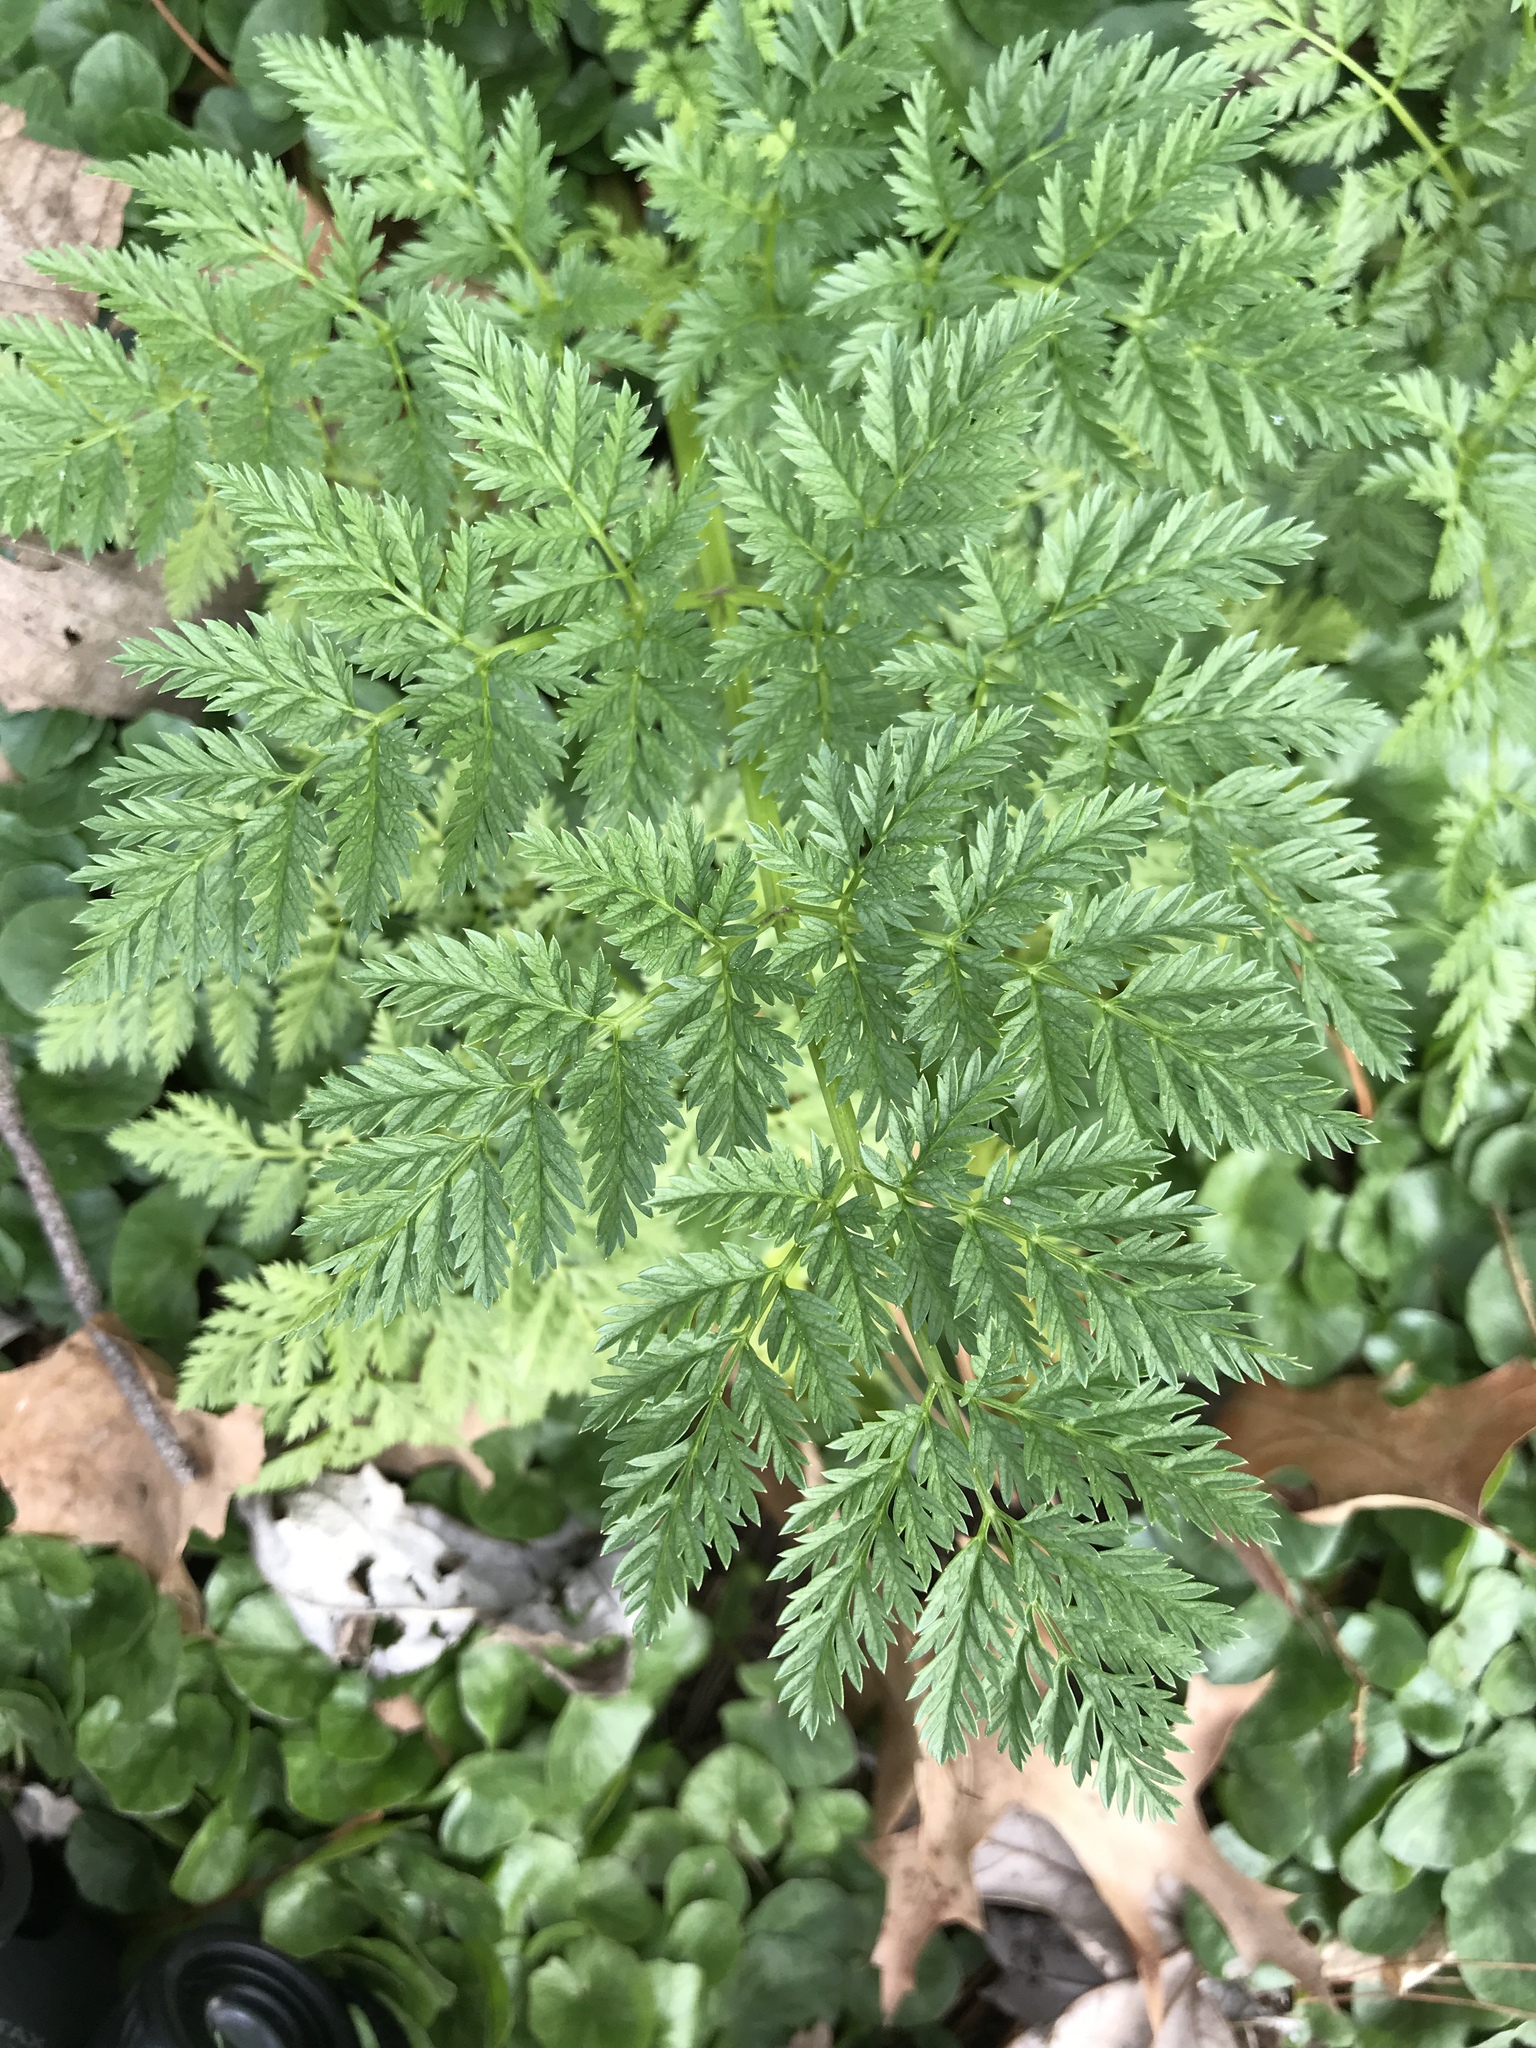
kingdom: Plantae
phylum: Tracheophyta
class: Magnoliopsida
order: Apiales
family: Apiaceae
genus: Conium
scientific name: Conium maculatum
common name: Hemlock
